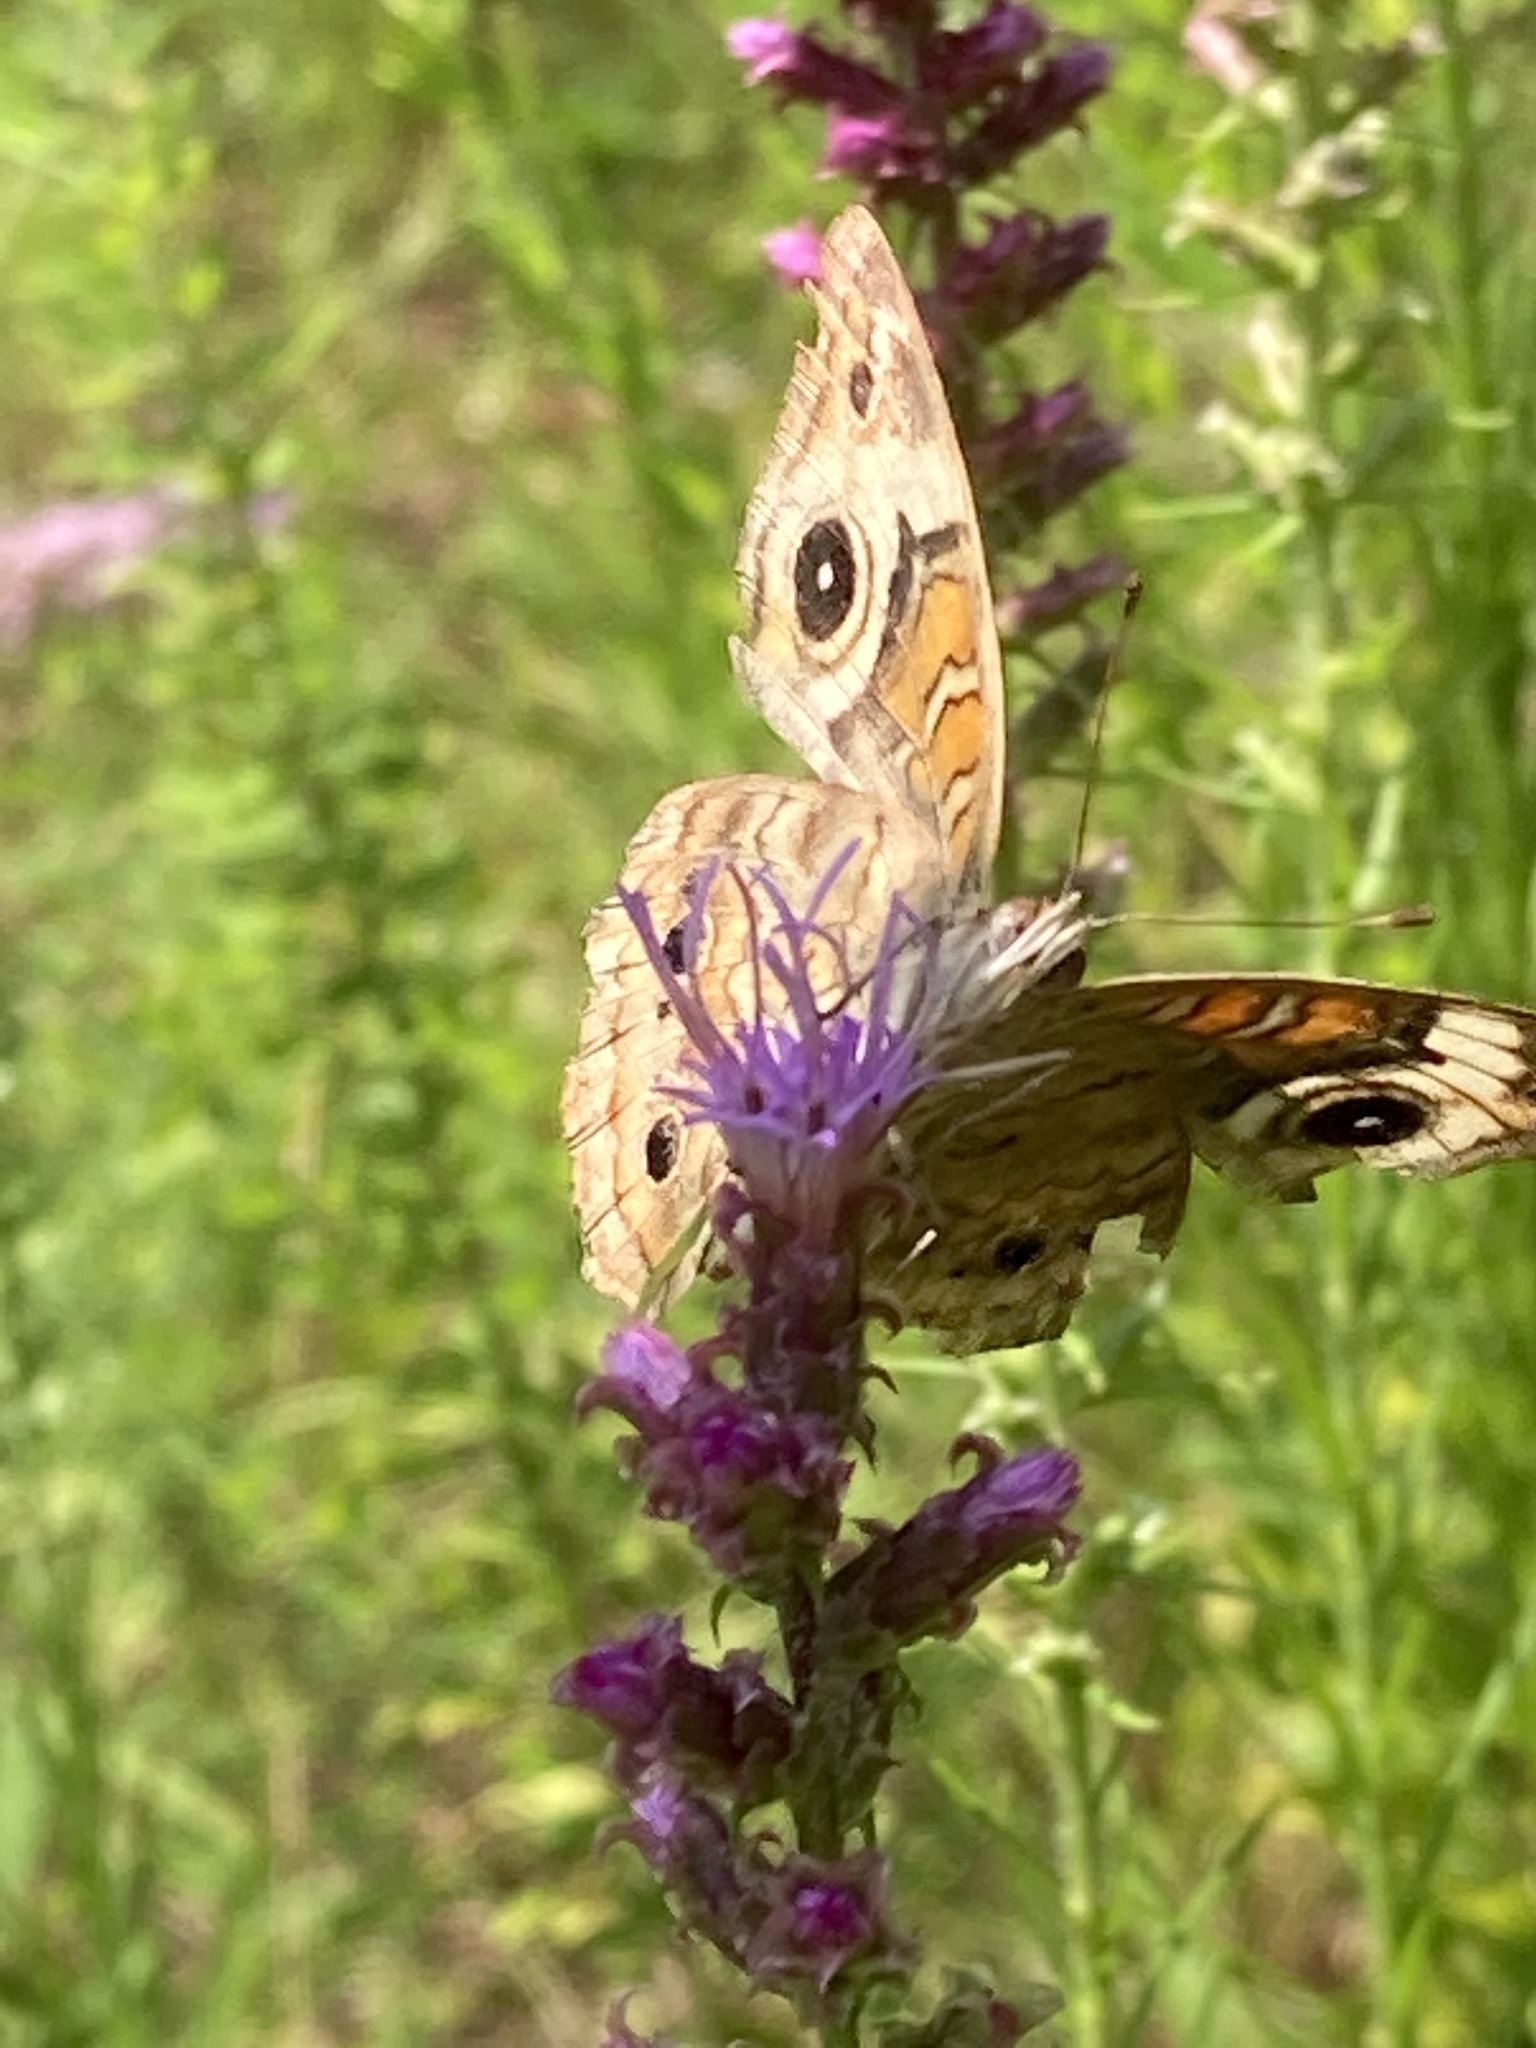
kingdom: Animalia
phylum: Arthropoda
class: Insecta
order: Lepidoptera
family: Nymphalidae
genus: Junonia
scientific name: Junonia coenia
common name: Common buckeye
